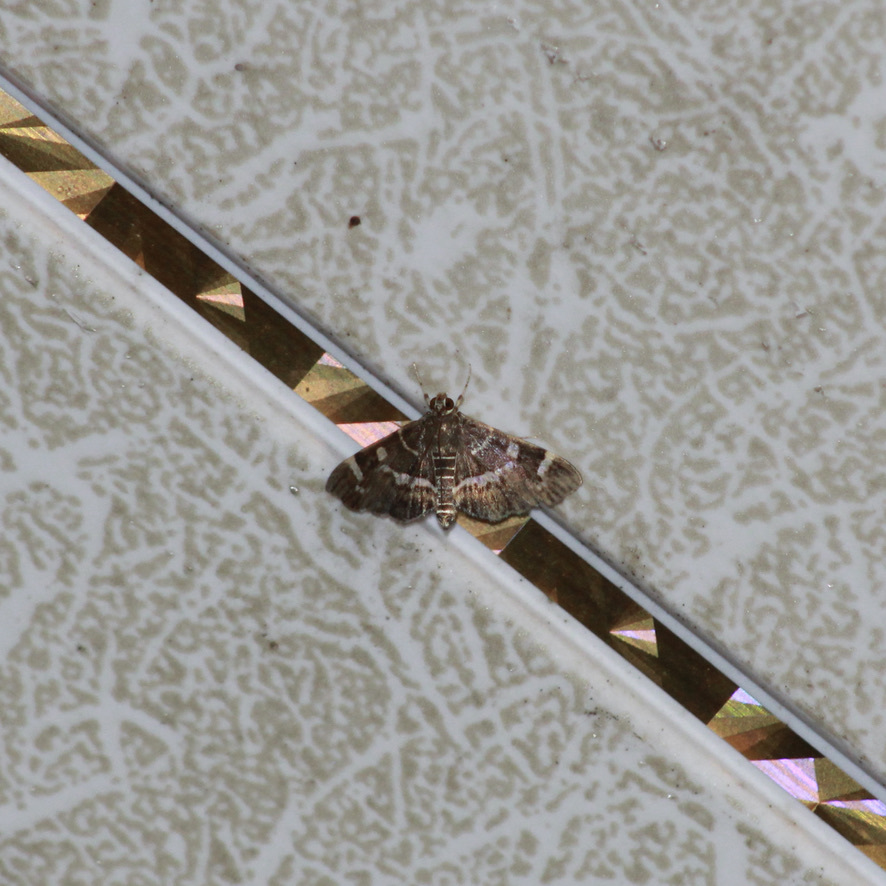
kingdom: Animalia
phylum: Arthropoda
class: Insecta
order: Lepidoptera
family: Crambidae
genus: Hymenia
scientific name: Hymenia perspectalis
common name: Spotted beet webworm
